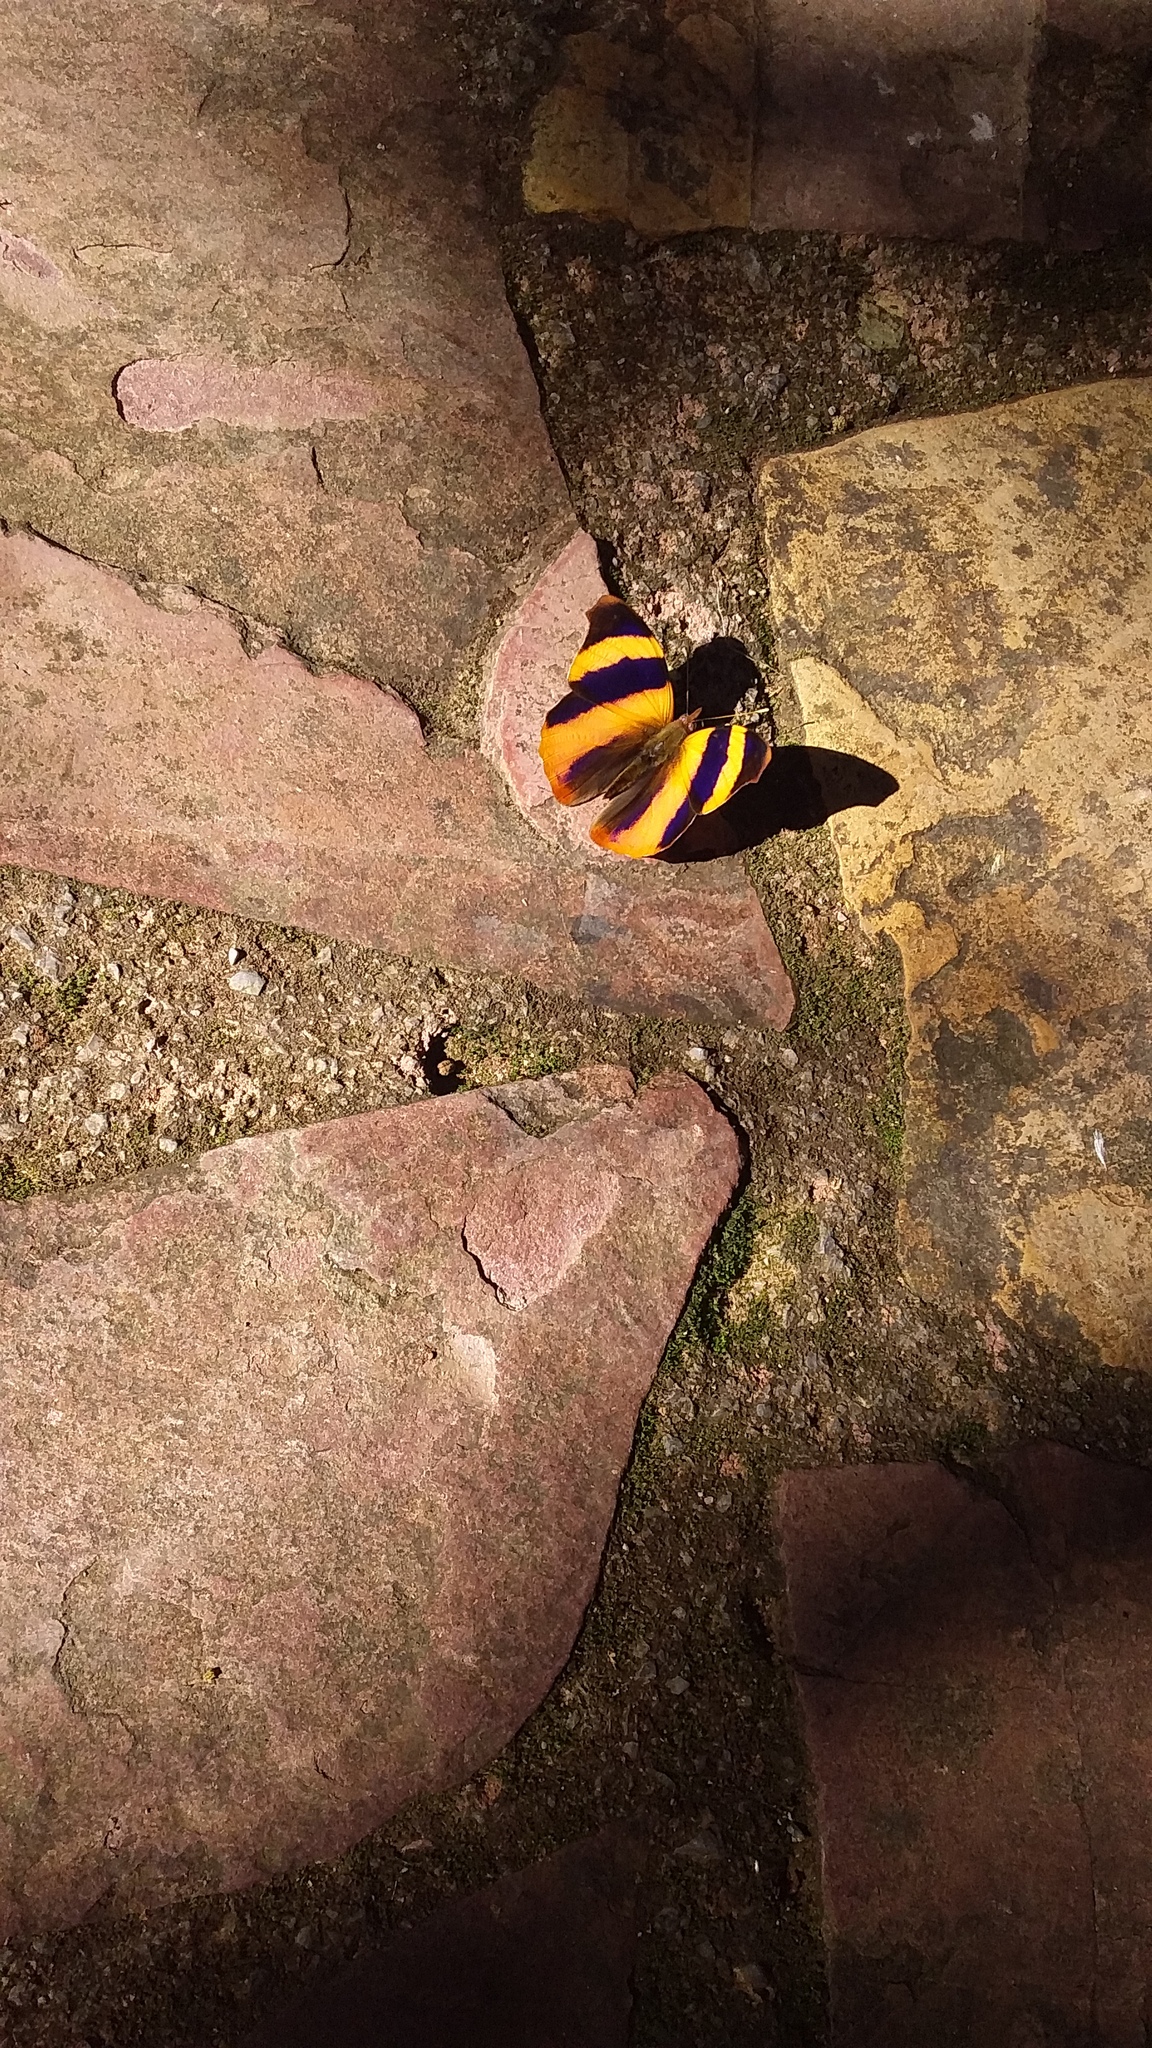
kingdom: Animalia
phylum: Arthropoda
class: Insecta
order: Lepidoptera
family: Nymphalidae
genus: Epiphile
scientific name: Epiphile adrasta
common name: Common banner
